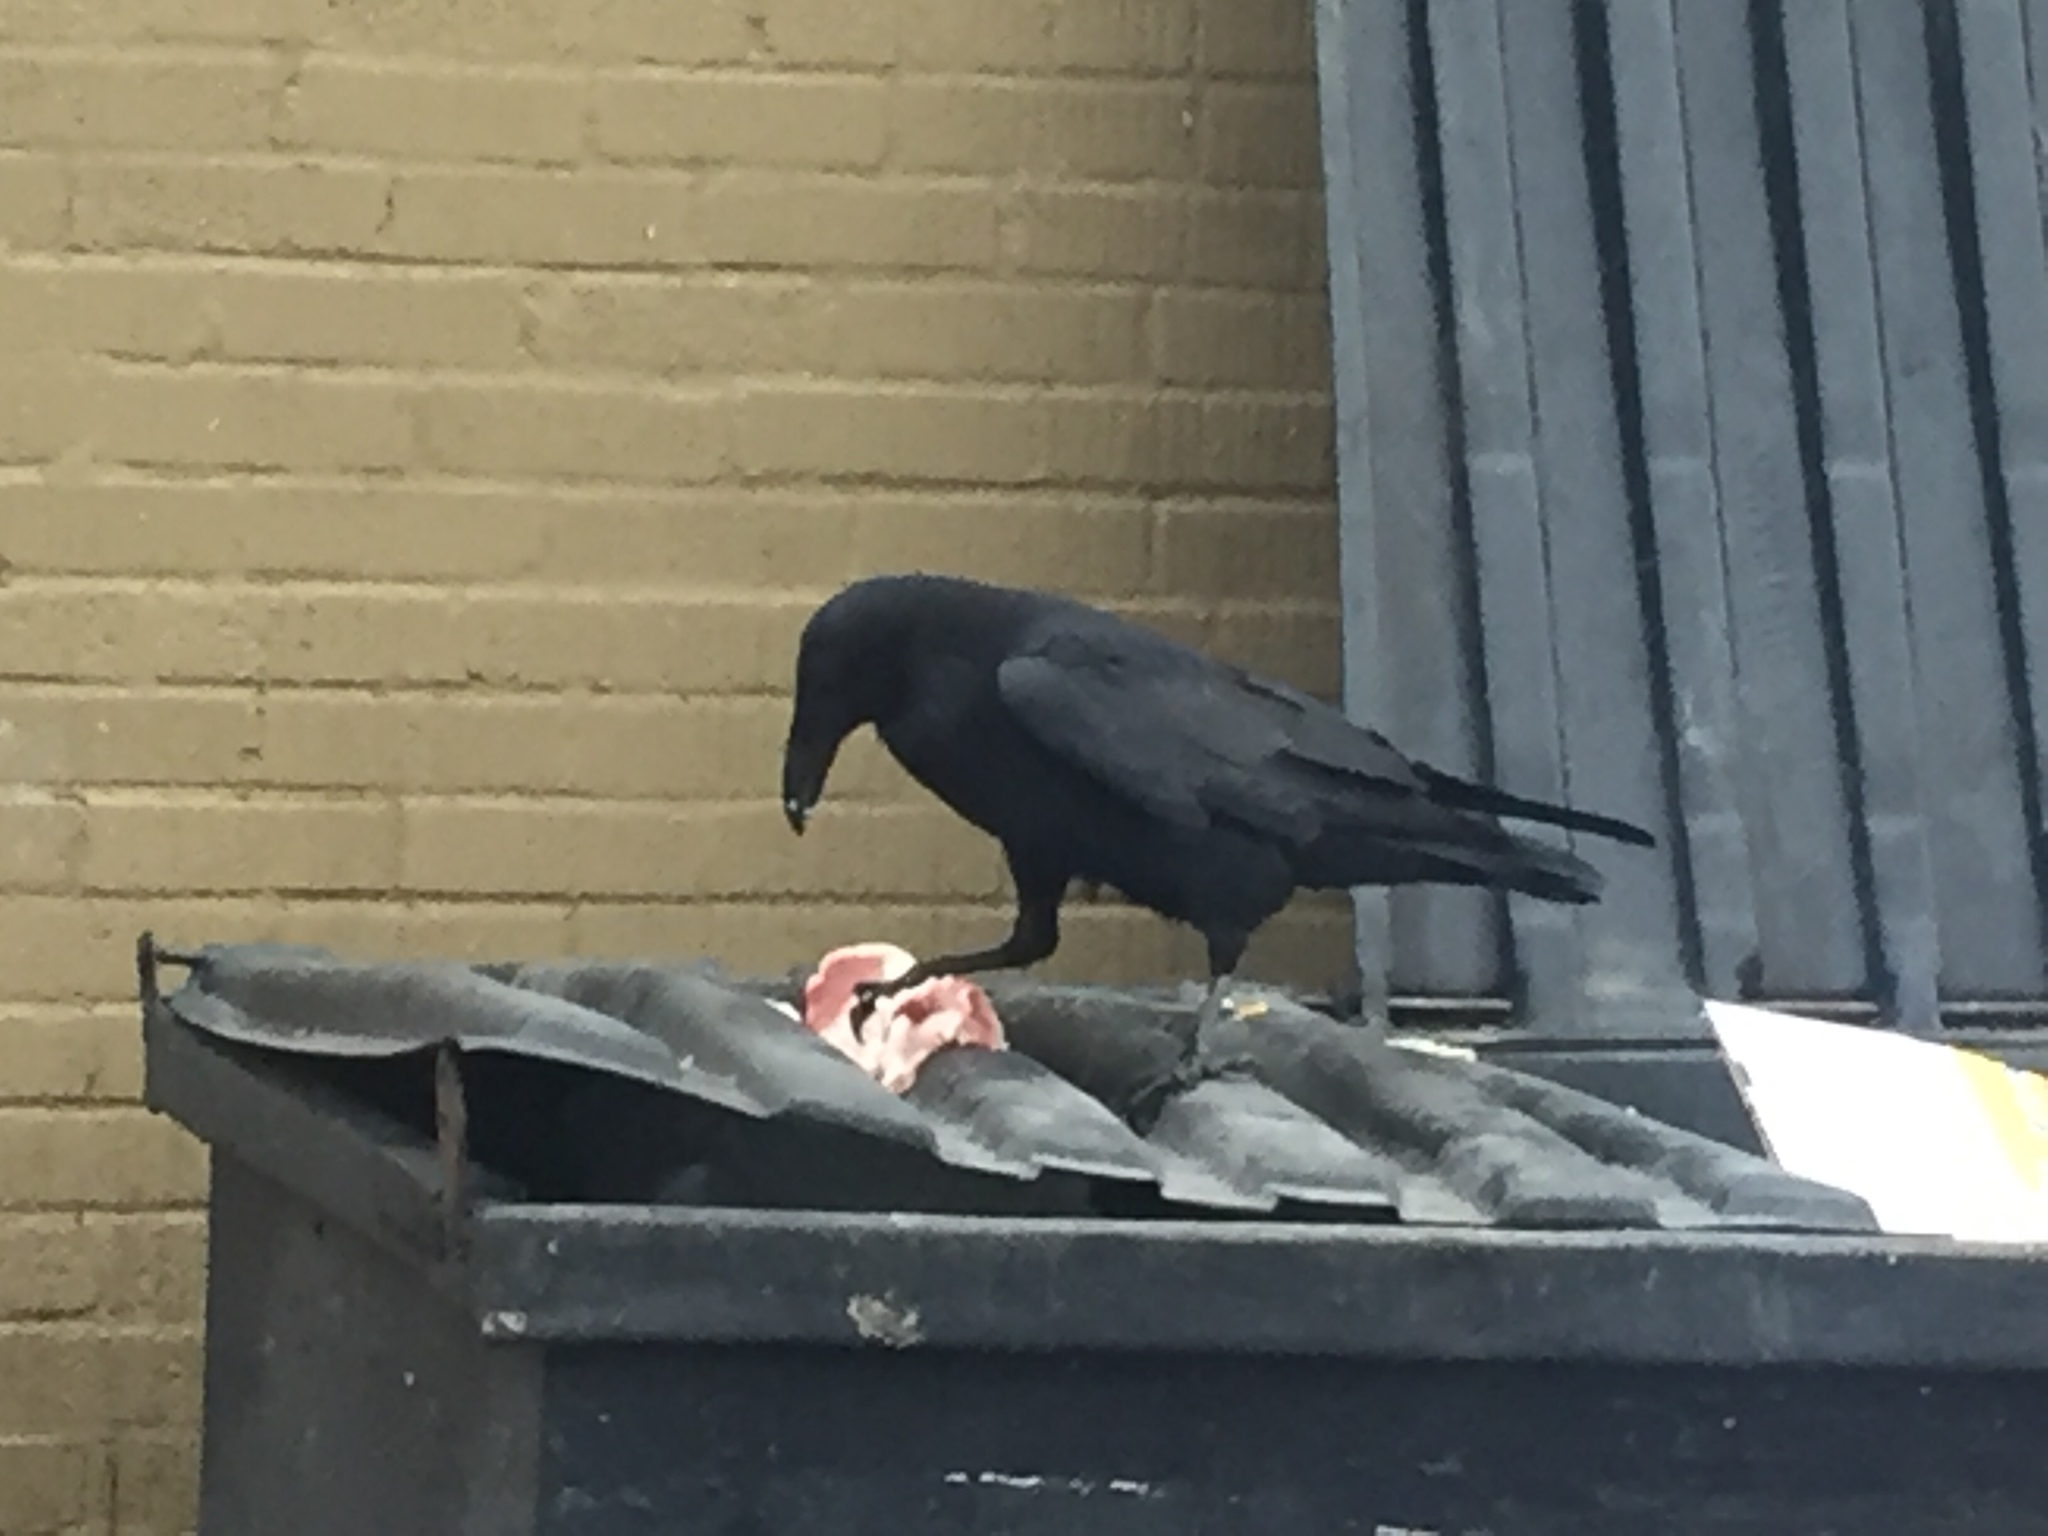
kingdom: Animalia
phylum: Chordata
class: Aves
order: Passeriformes
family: Corvidae
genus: Corvus
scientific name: Corvus corax
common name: Common raven
